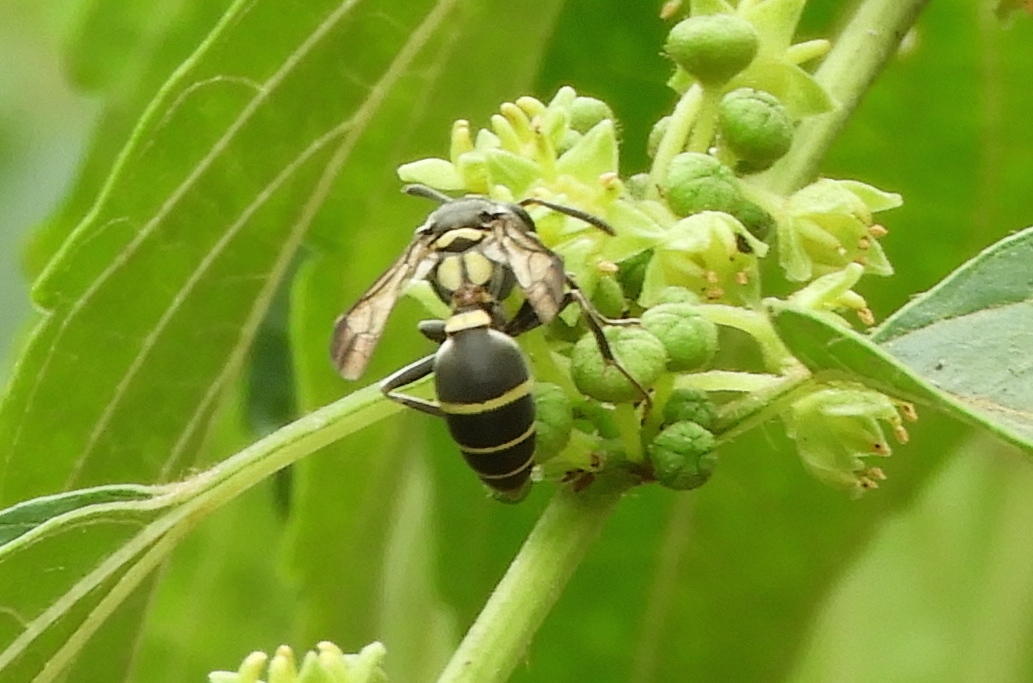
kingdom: Animalia
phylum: Arthropoda
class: Insecta
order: Hymenoptera
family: Eumenidae
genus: Polybia
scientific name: Polybia
